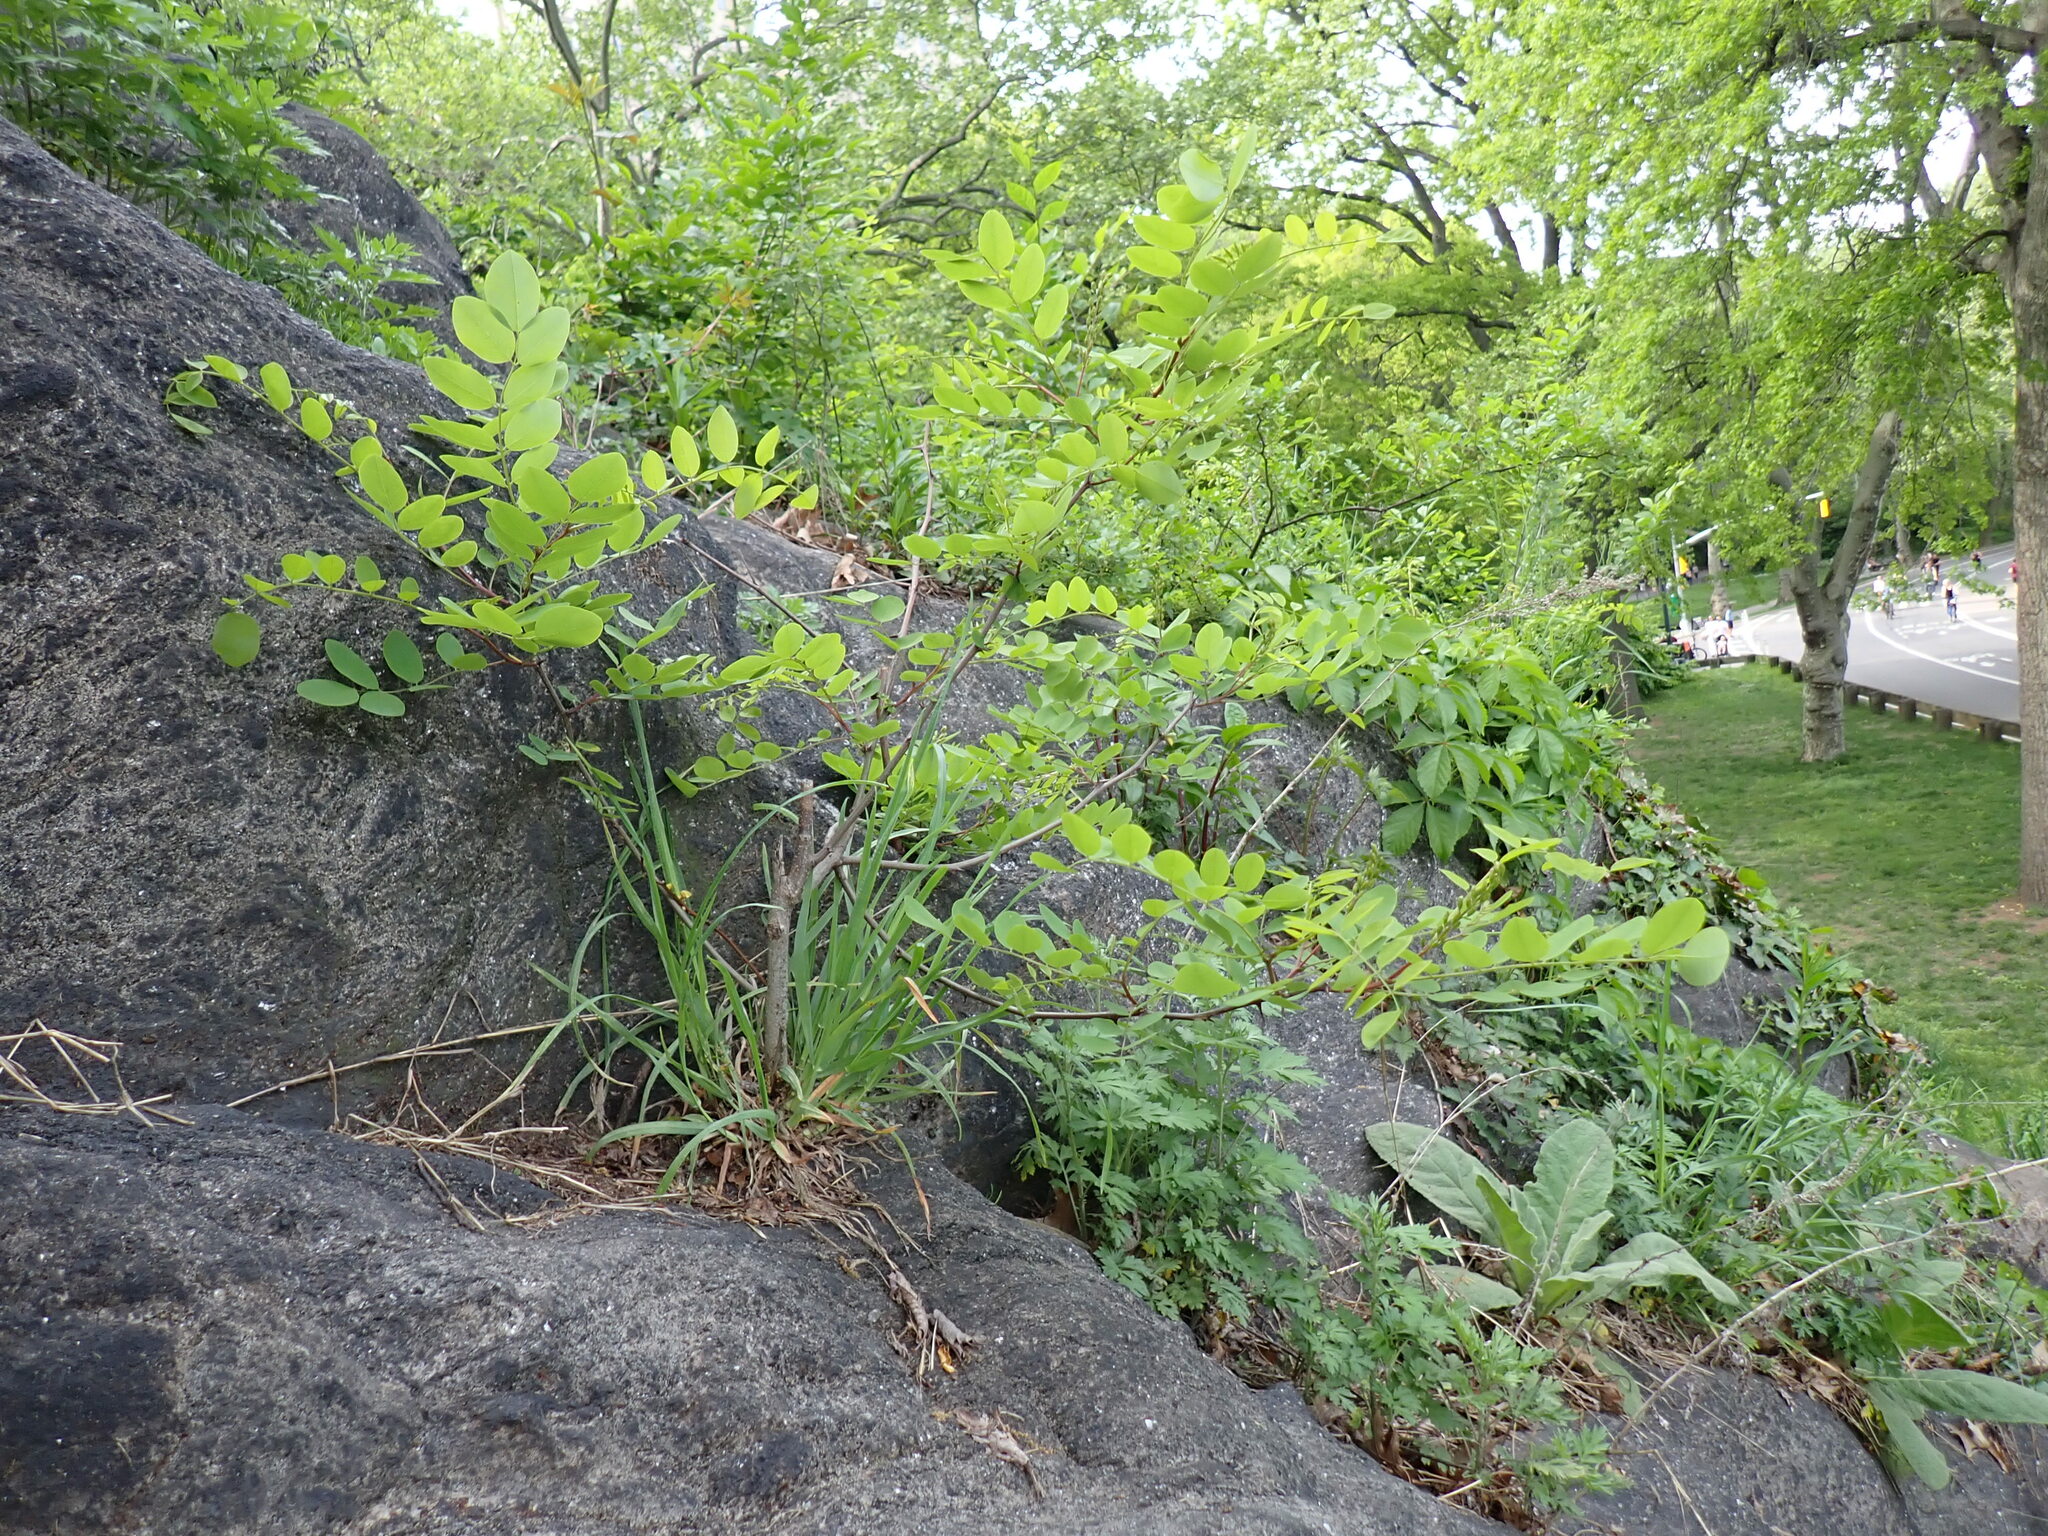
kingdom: Plantae
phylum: Tracheophyta
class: Magnoliopsida
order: Fabales
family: Fabaceae
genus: Robinia
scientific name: Robinia pseudoacacia
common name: Black locust
